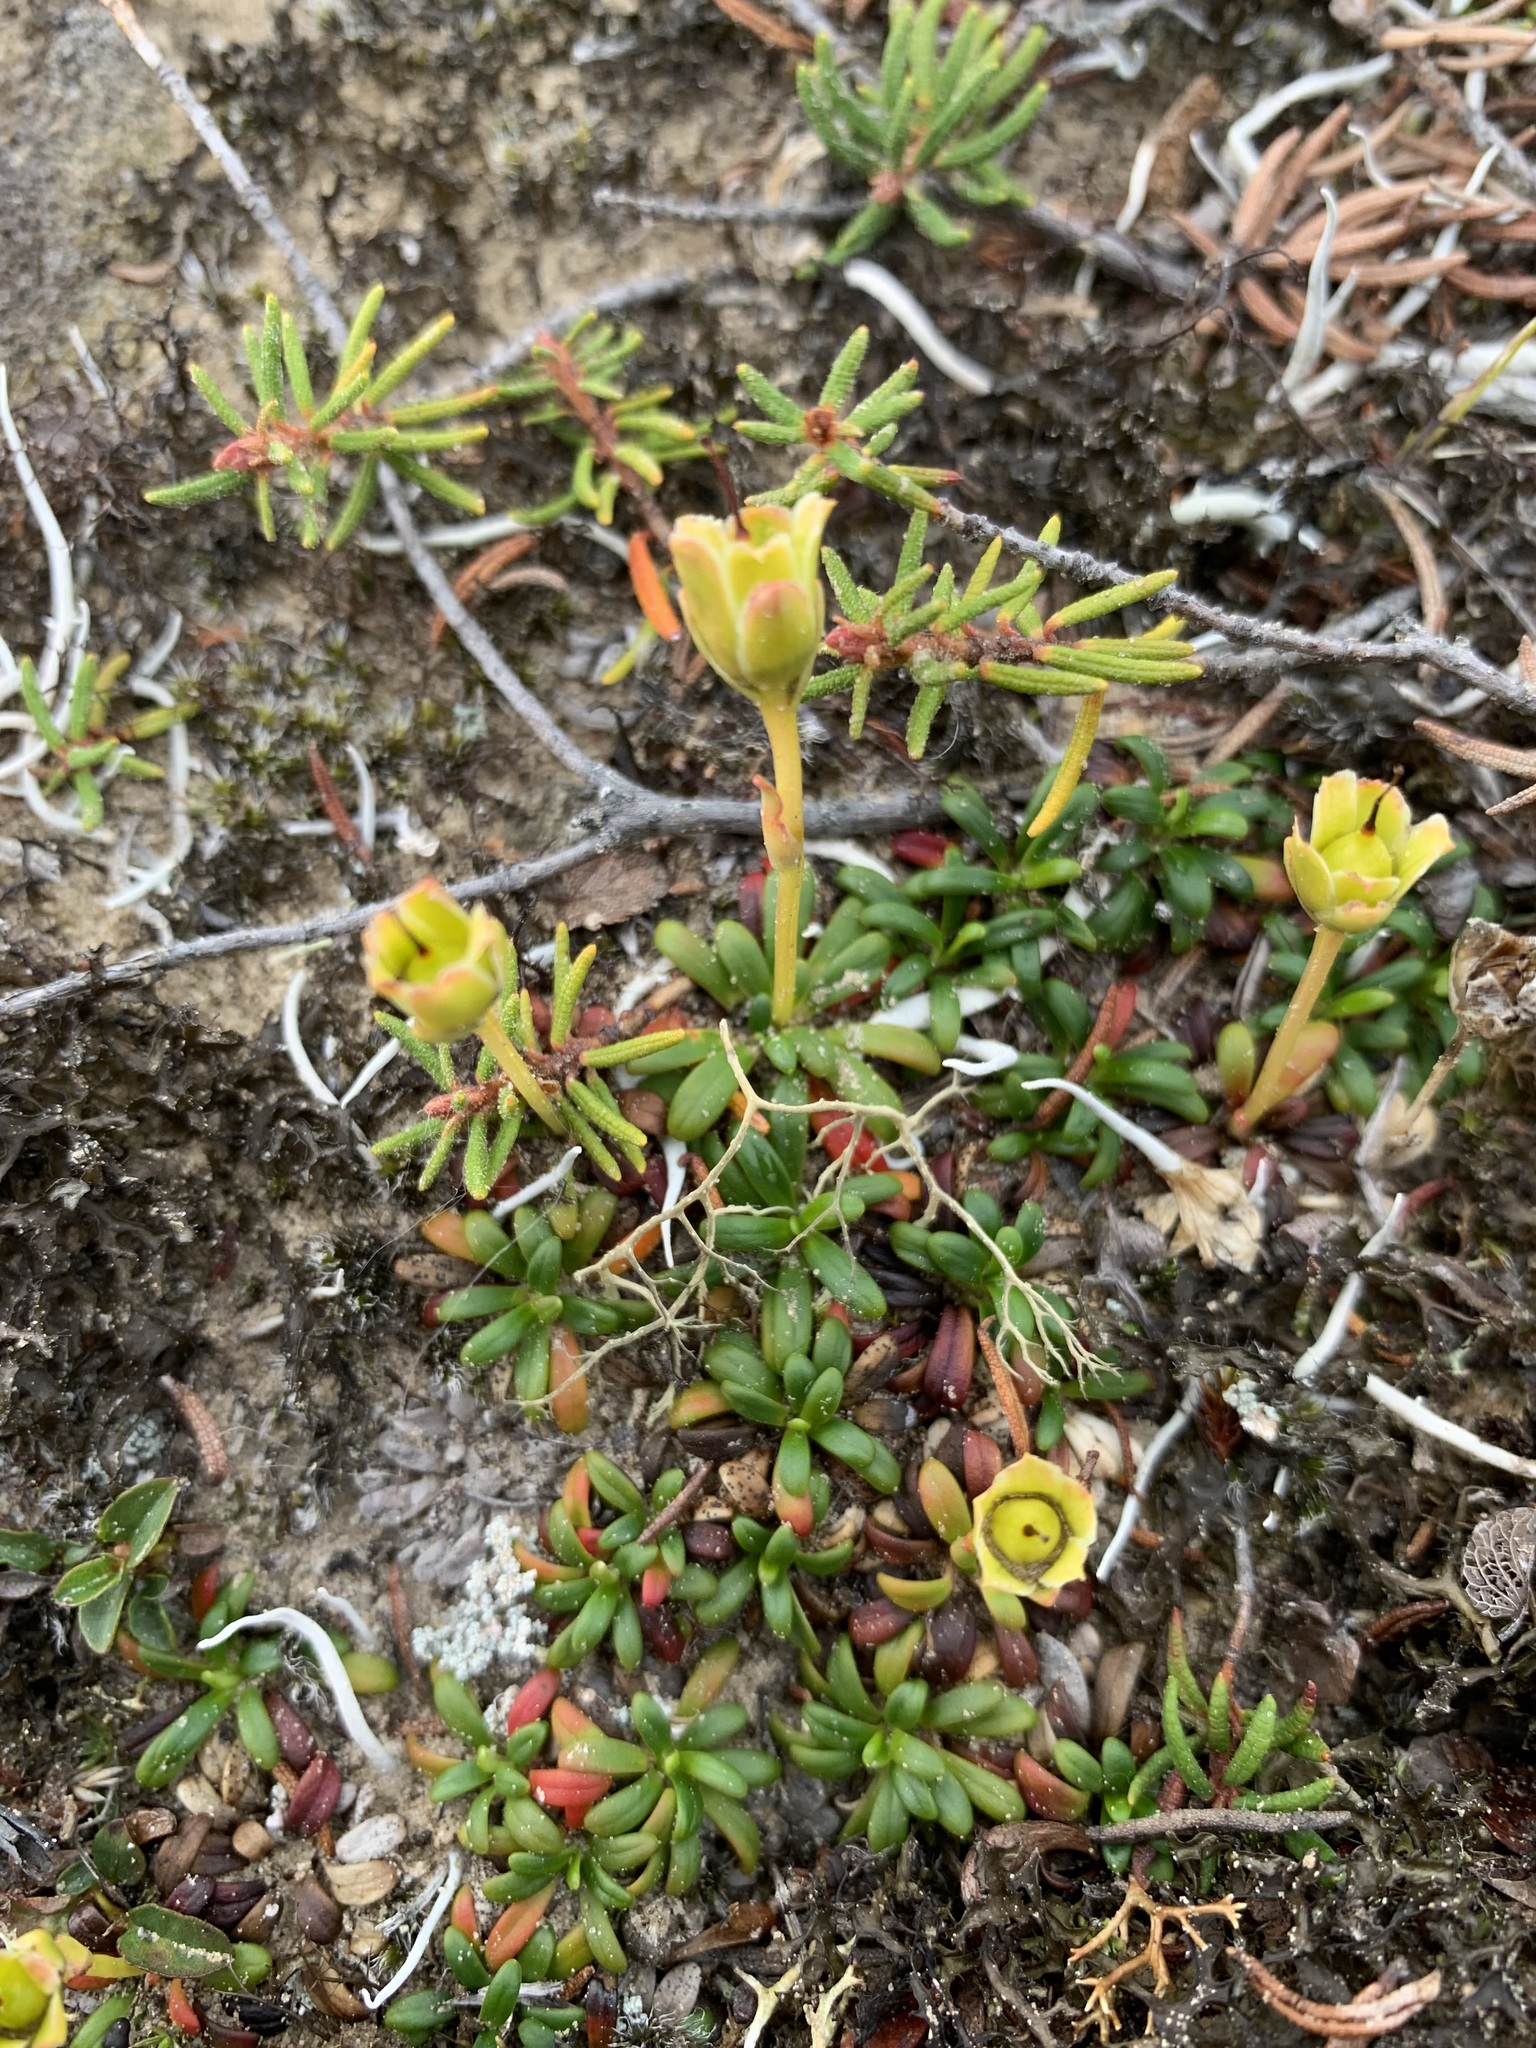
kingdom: Plantae
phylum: Tracheophyta
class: Magnoliopsida
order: Ericales
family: Diapensiaceae
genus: Diapensia
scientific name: Diapensia lapponica
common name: Diapensia
